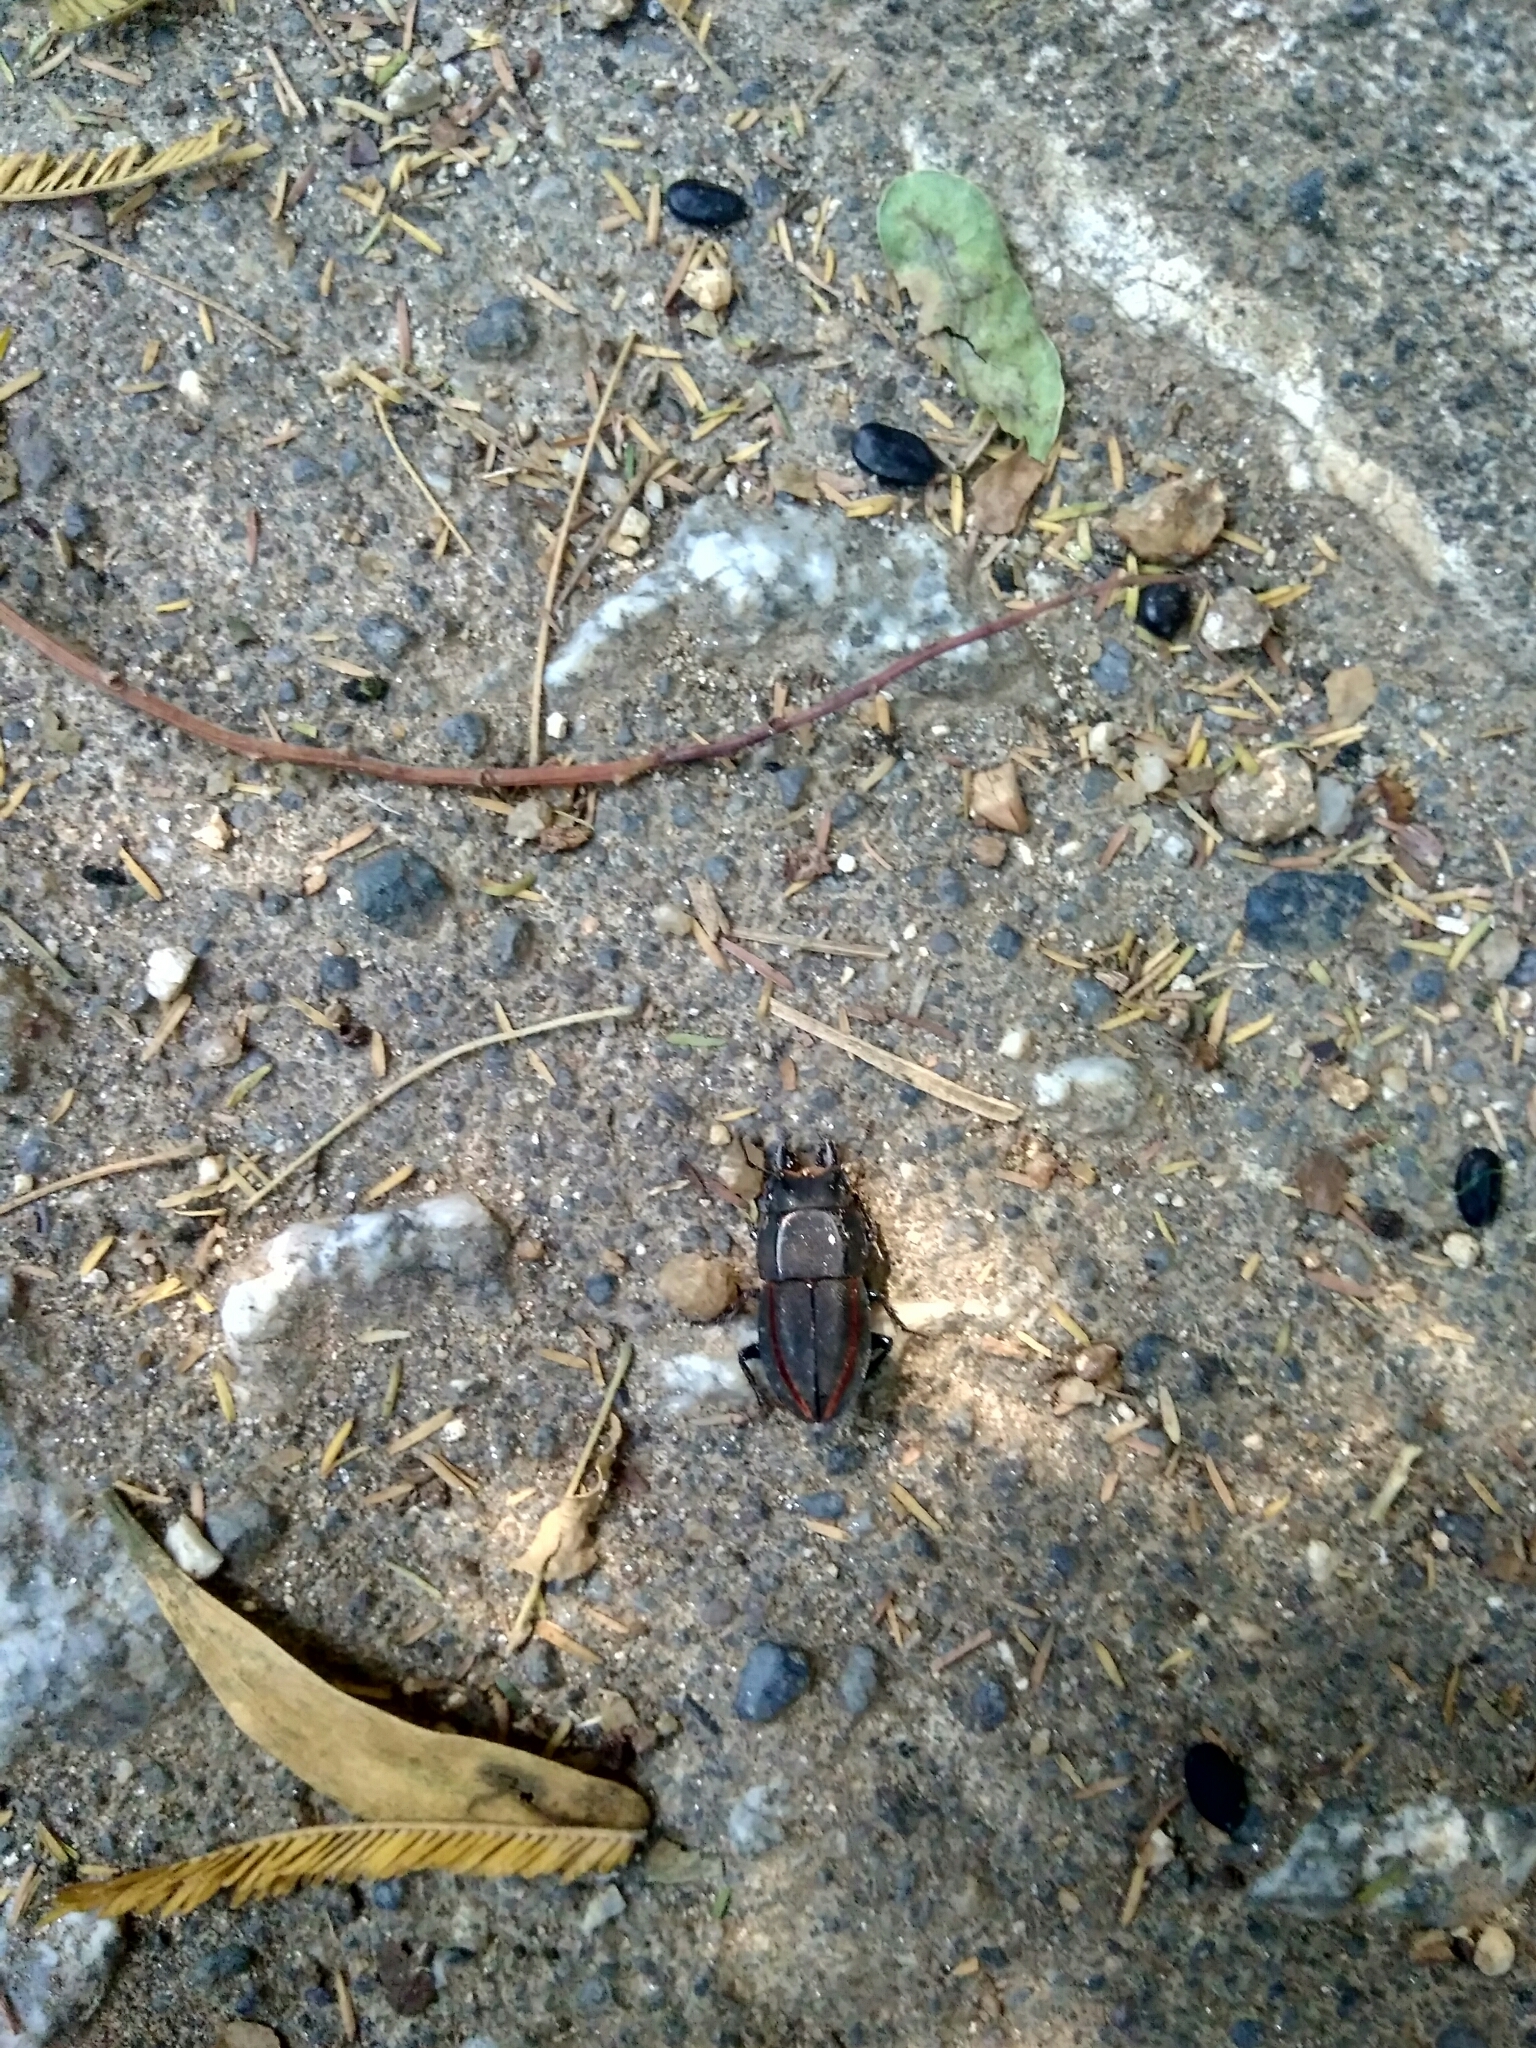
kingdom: Animalia
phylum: Arthropoda
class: Insecta
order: Coleoptera
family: Lucanidae
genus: Erichius
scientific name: Erichius vittatus
